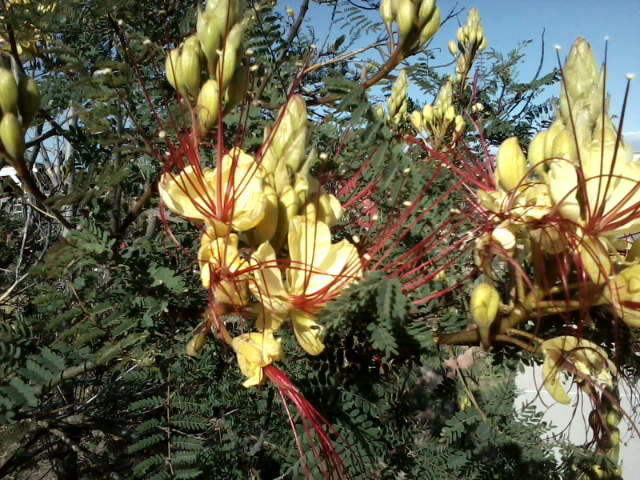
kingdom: Plantae
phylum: Tracheophyta
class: Magnoliopsida
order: Fabales
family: Fabaceae
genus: Erythrostemon
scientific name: Erythrostemon gilliesii
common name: Bird-of-paradise shrub
